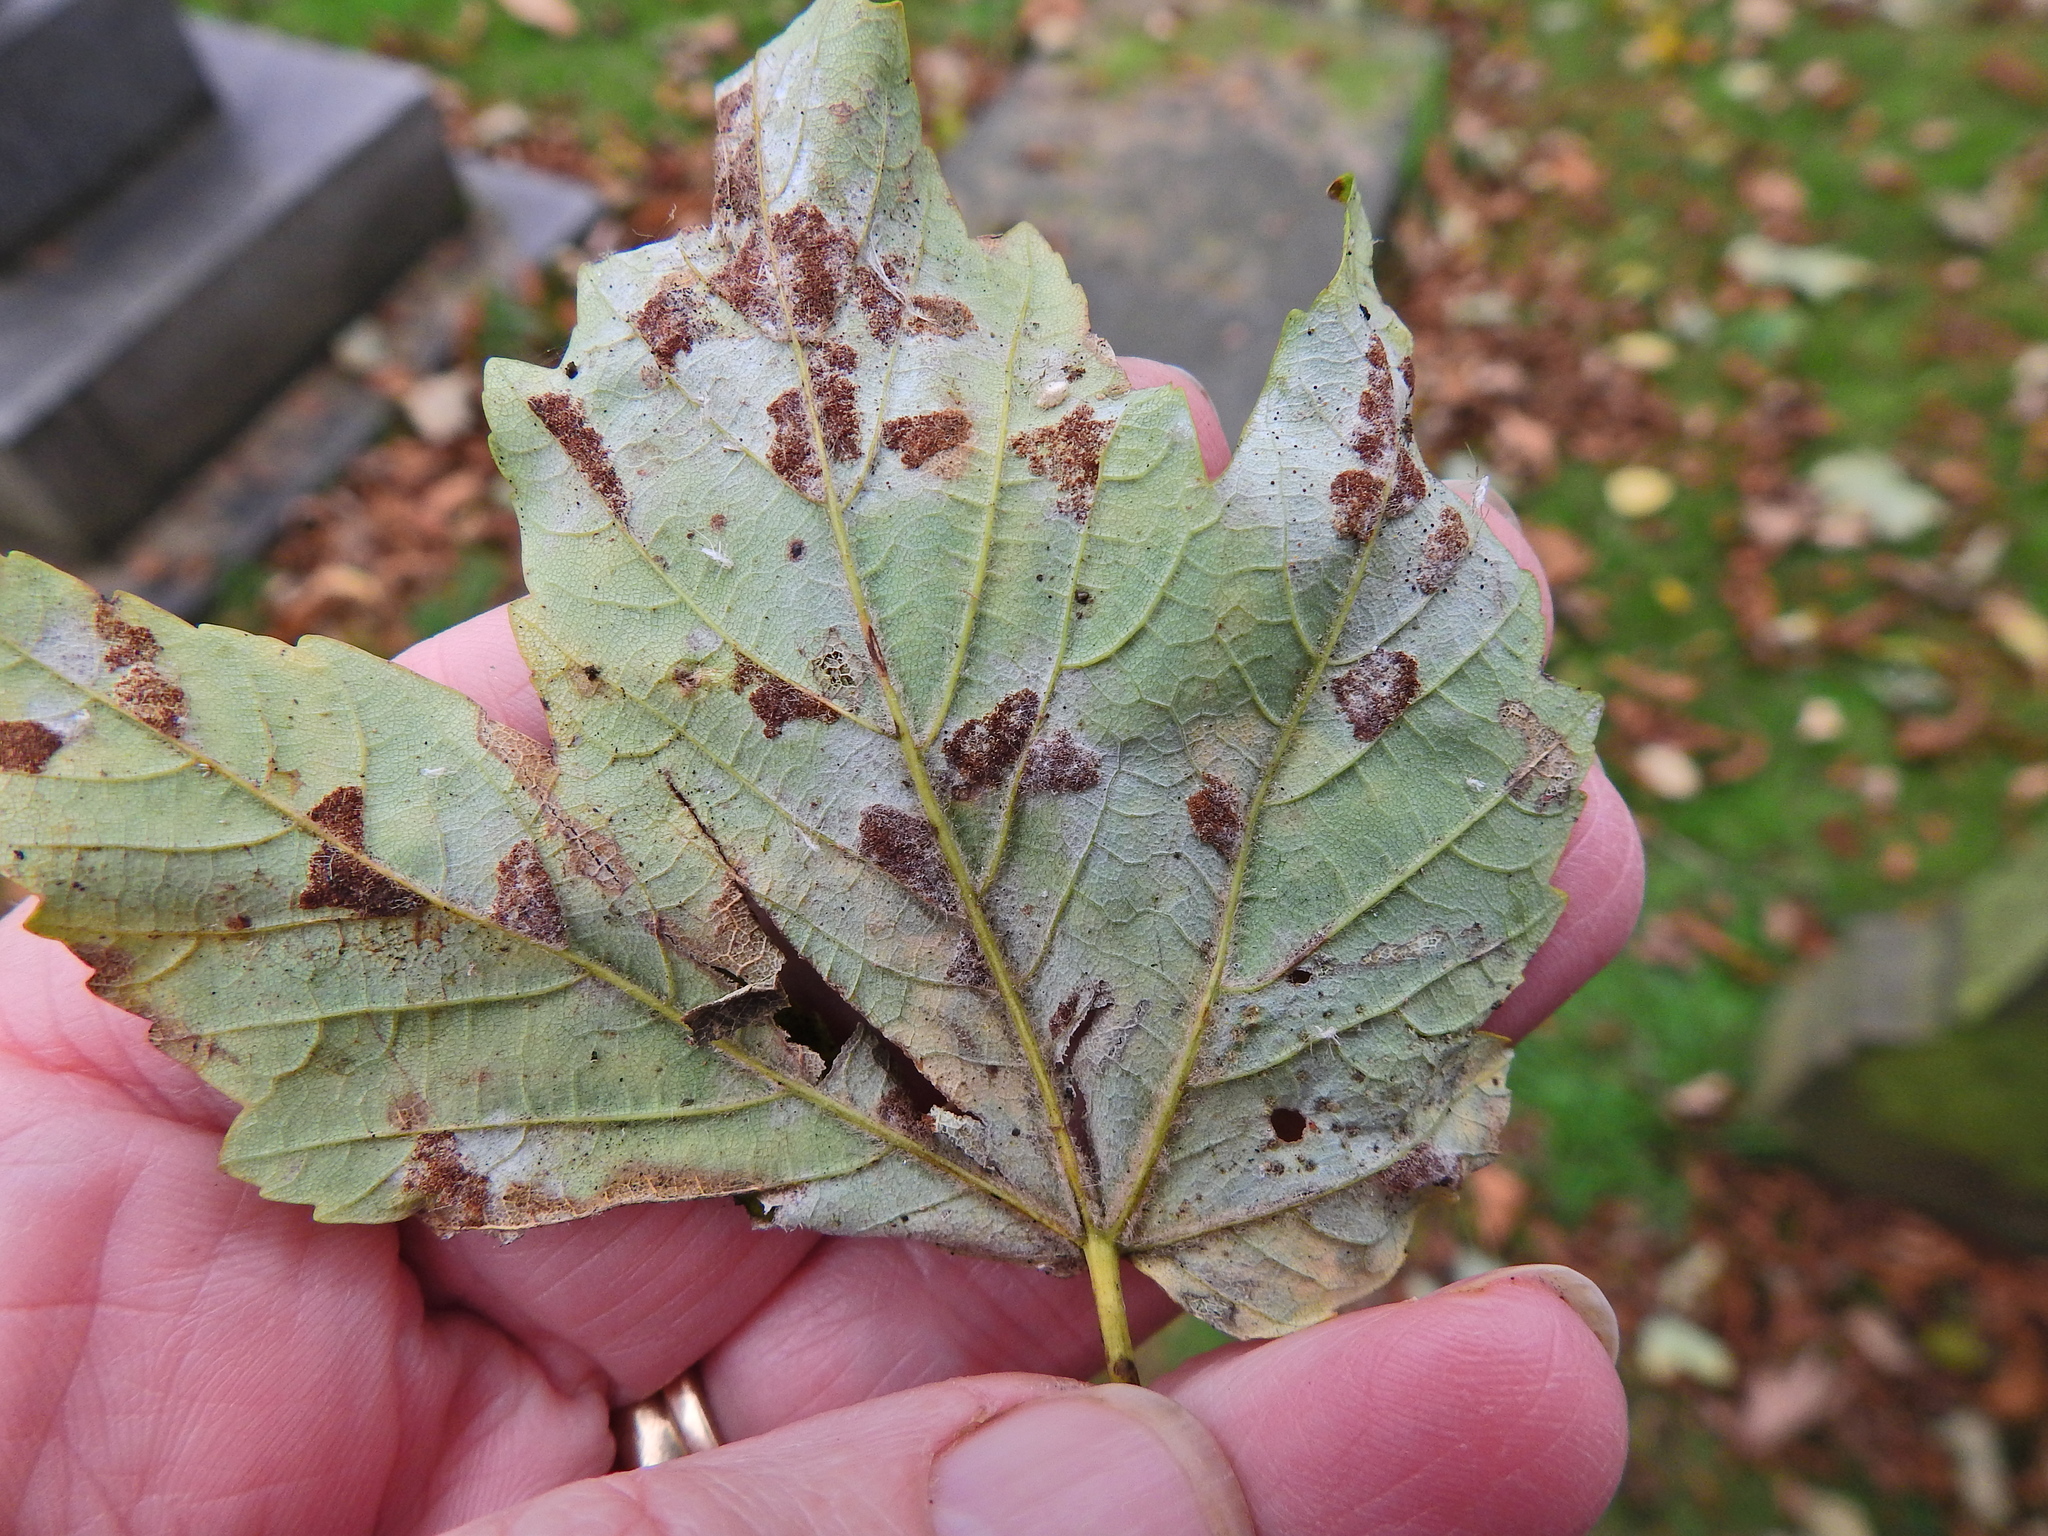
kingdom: Animalia
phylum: Arthropoda
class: Arachnida
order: Trombidiformes
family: Eriophyidae
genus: Aceria
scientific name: Aceria pseudoplatani
